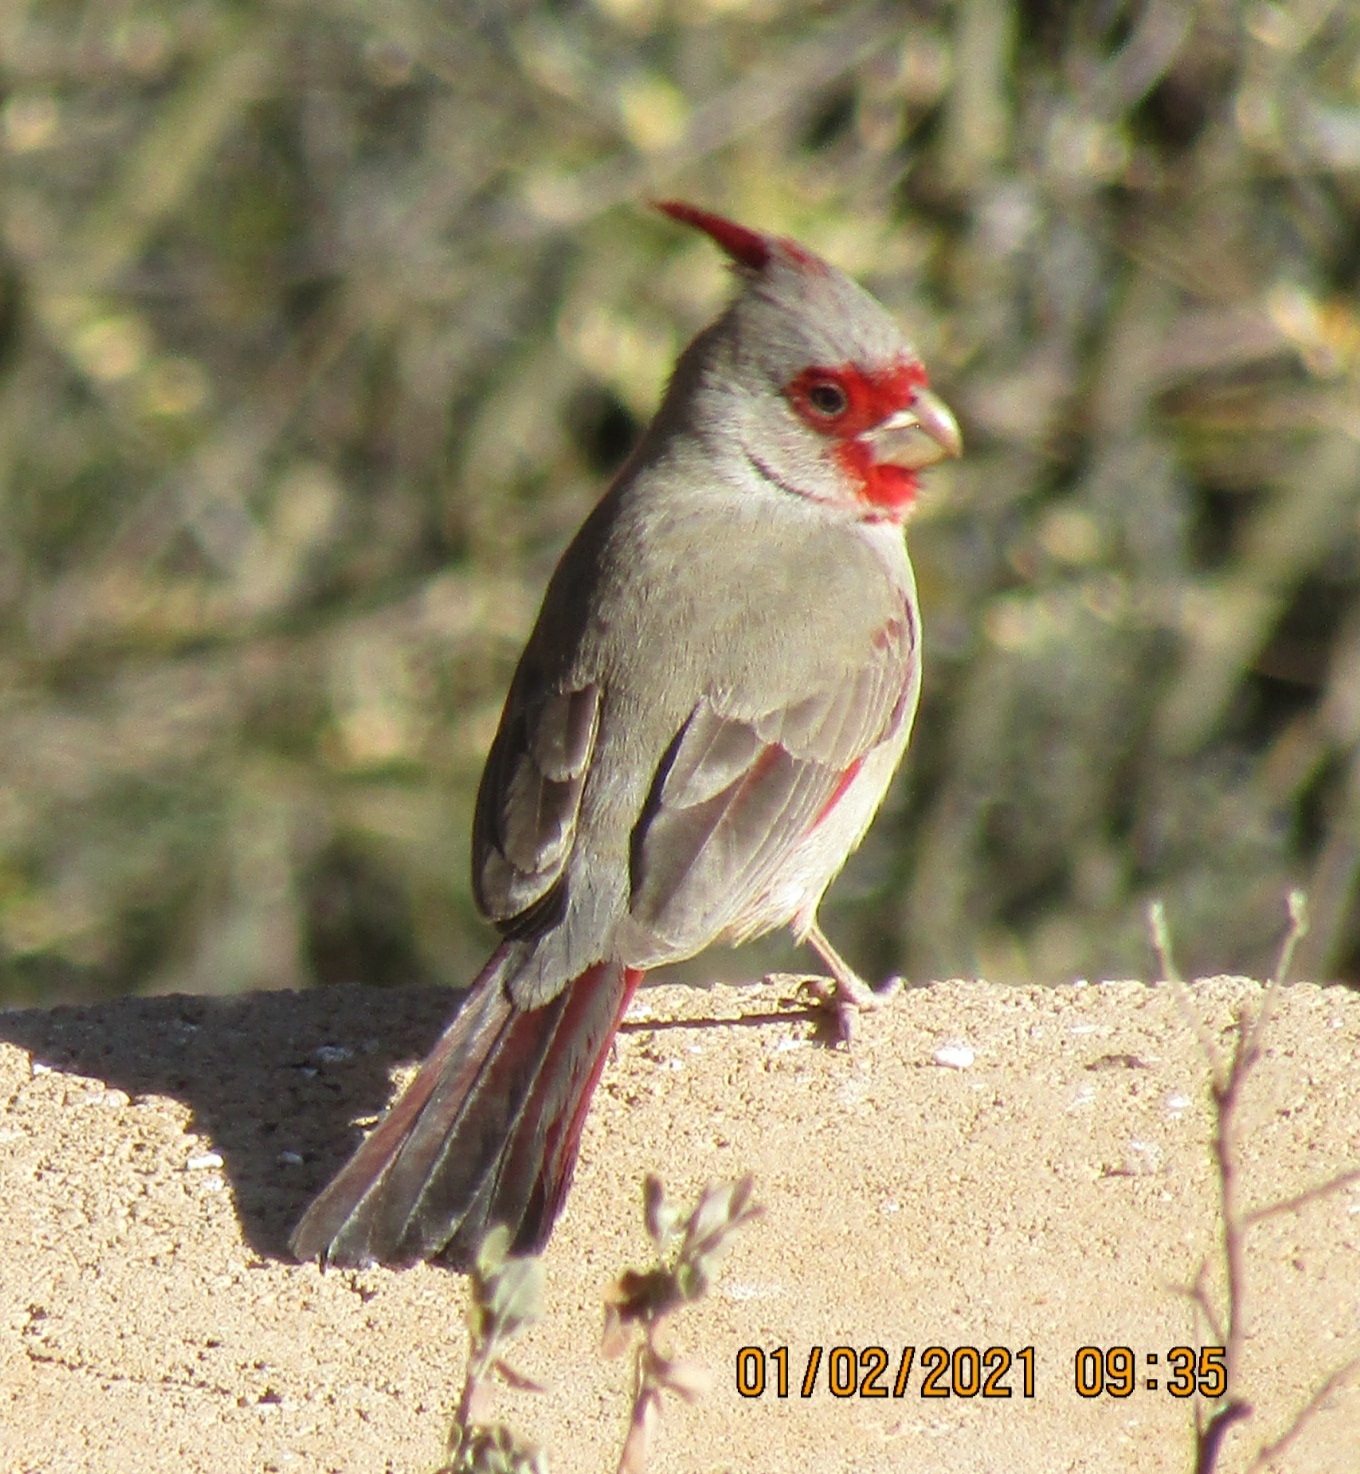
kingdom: Animalia
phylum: Chordata
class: Aves
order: Passeriformes
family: Cardinalidae
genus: Cardinalis
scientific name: Cardinalis sinuatus
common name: Pyrrhuloxia
